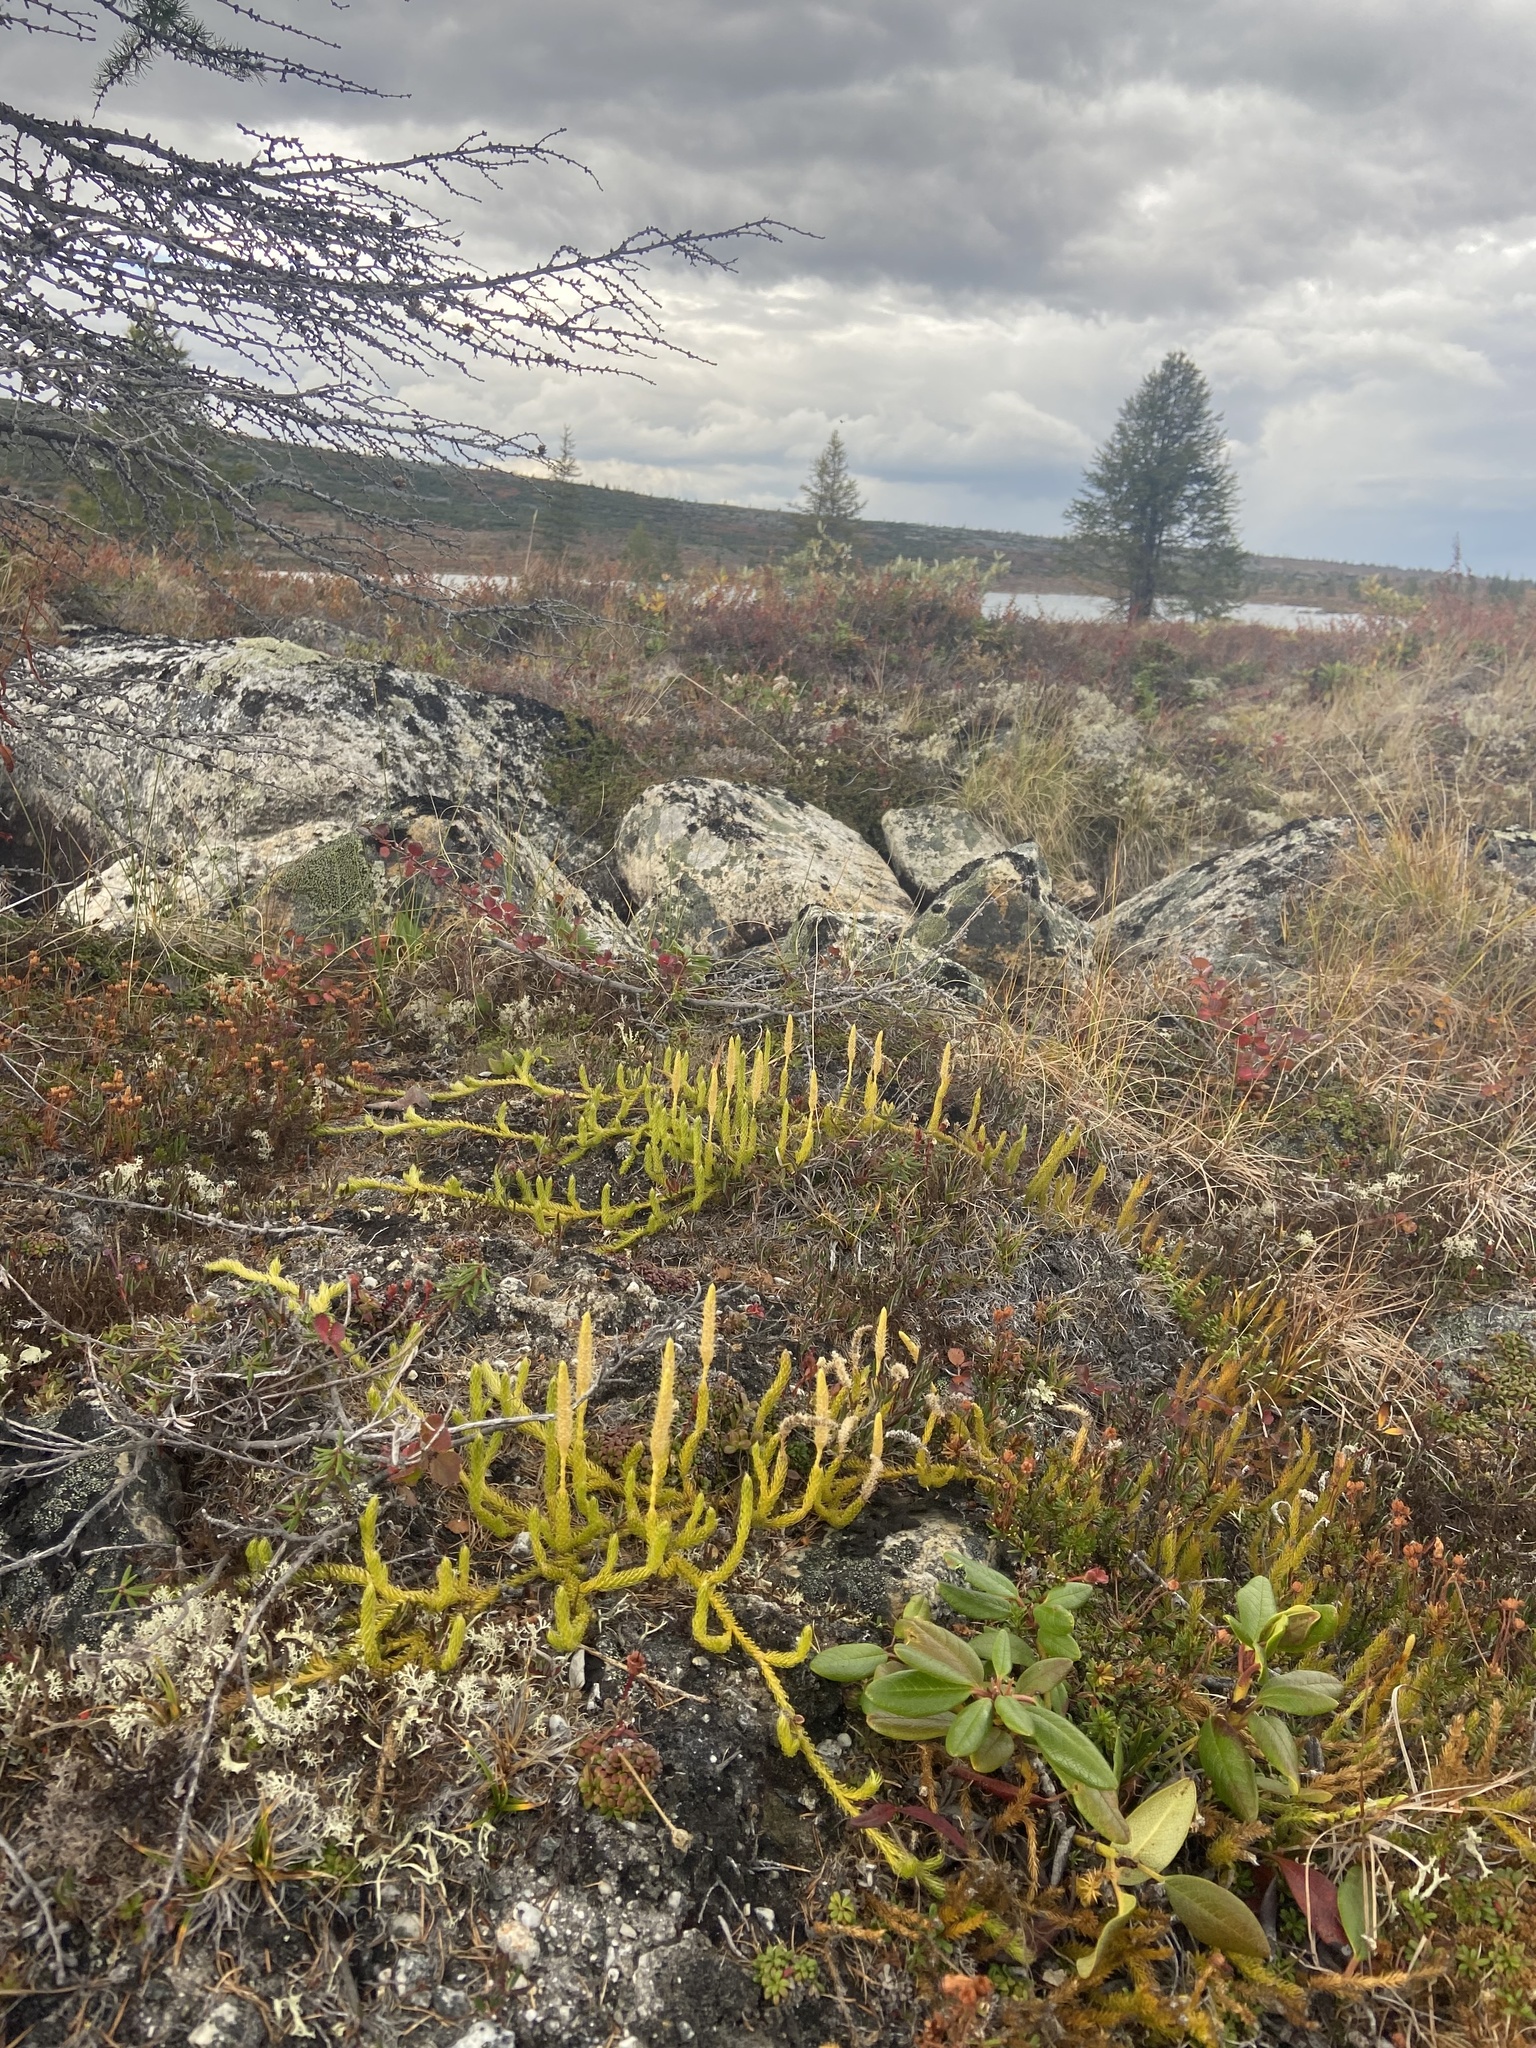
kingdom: Plantae
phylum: Tracheophyta
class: Lycopodiopsida
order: Lycopodiales
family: Lycopodiaceae
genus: Lycopodium
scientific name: Lycopodium lagopus
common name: One-cone clubmoss
